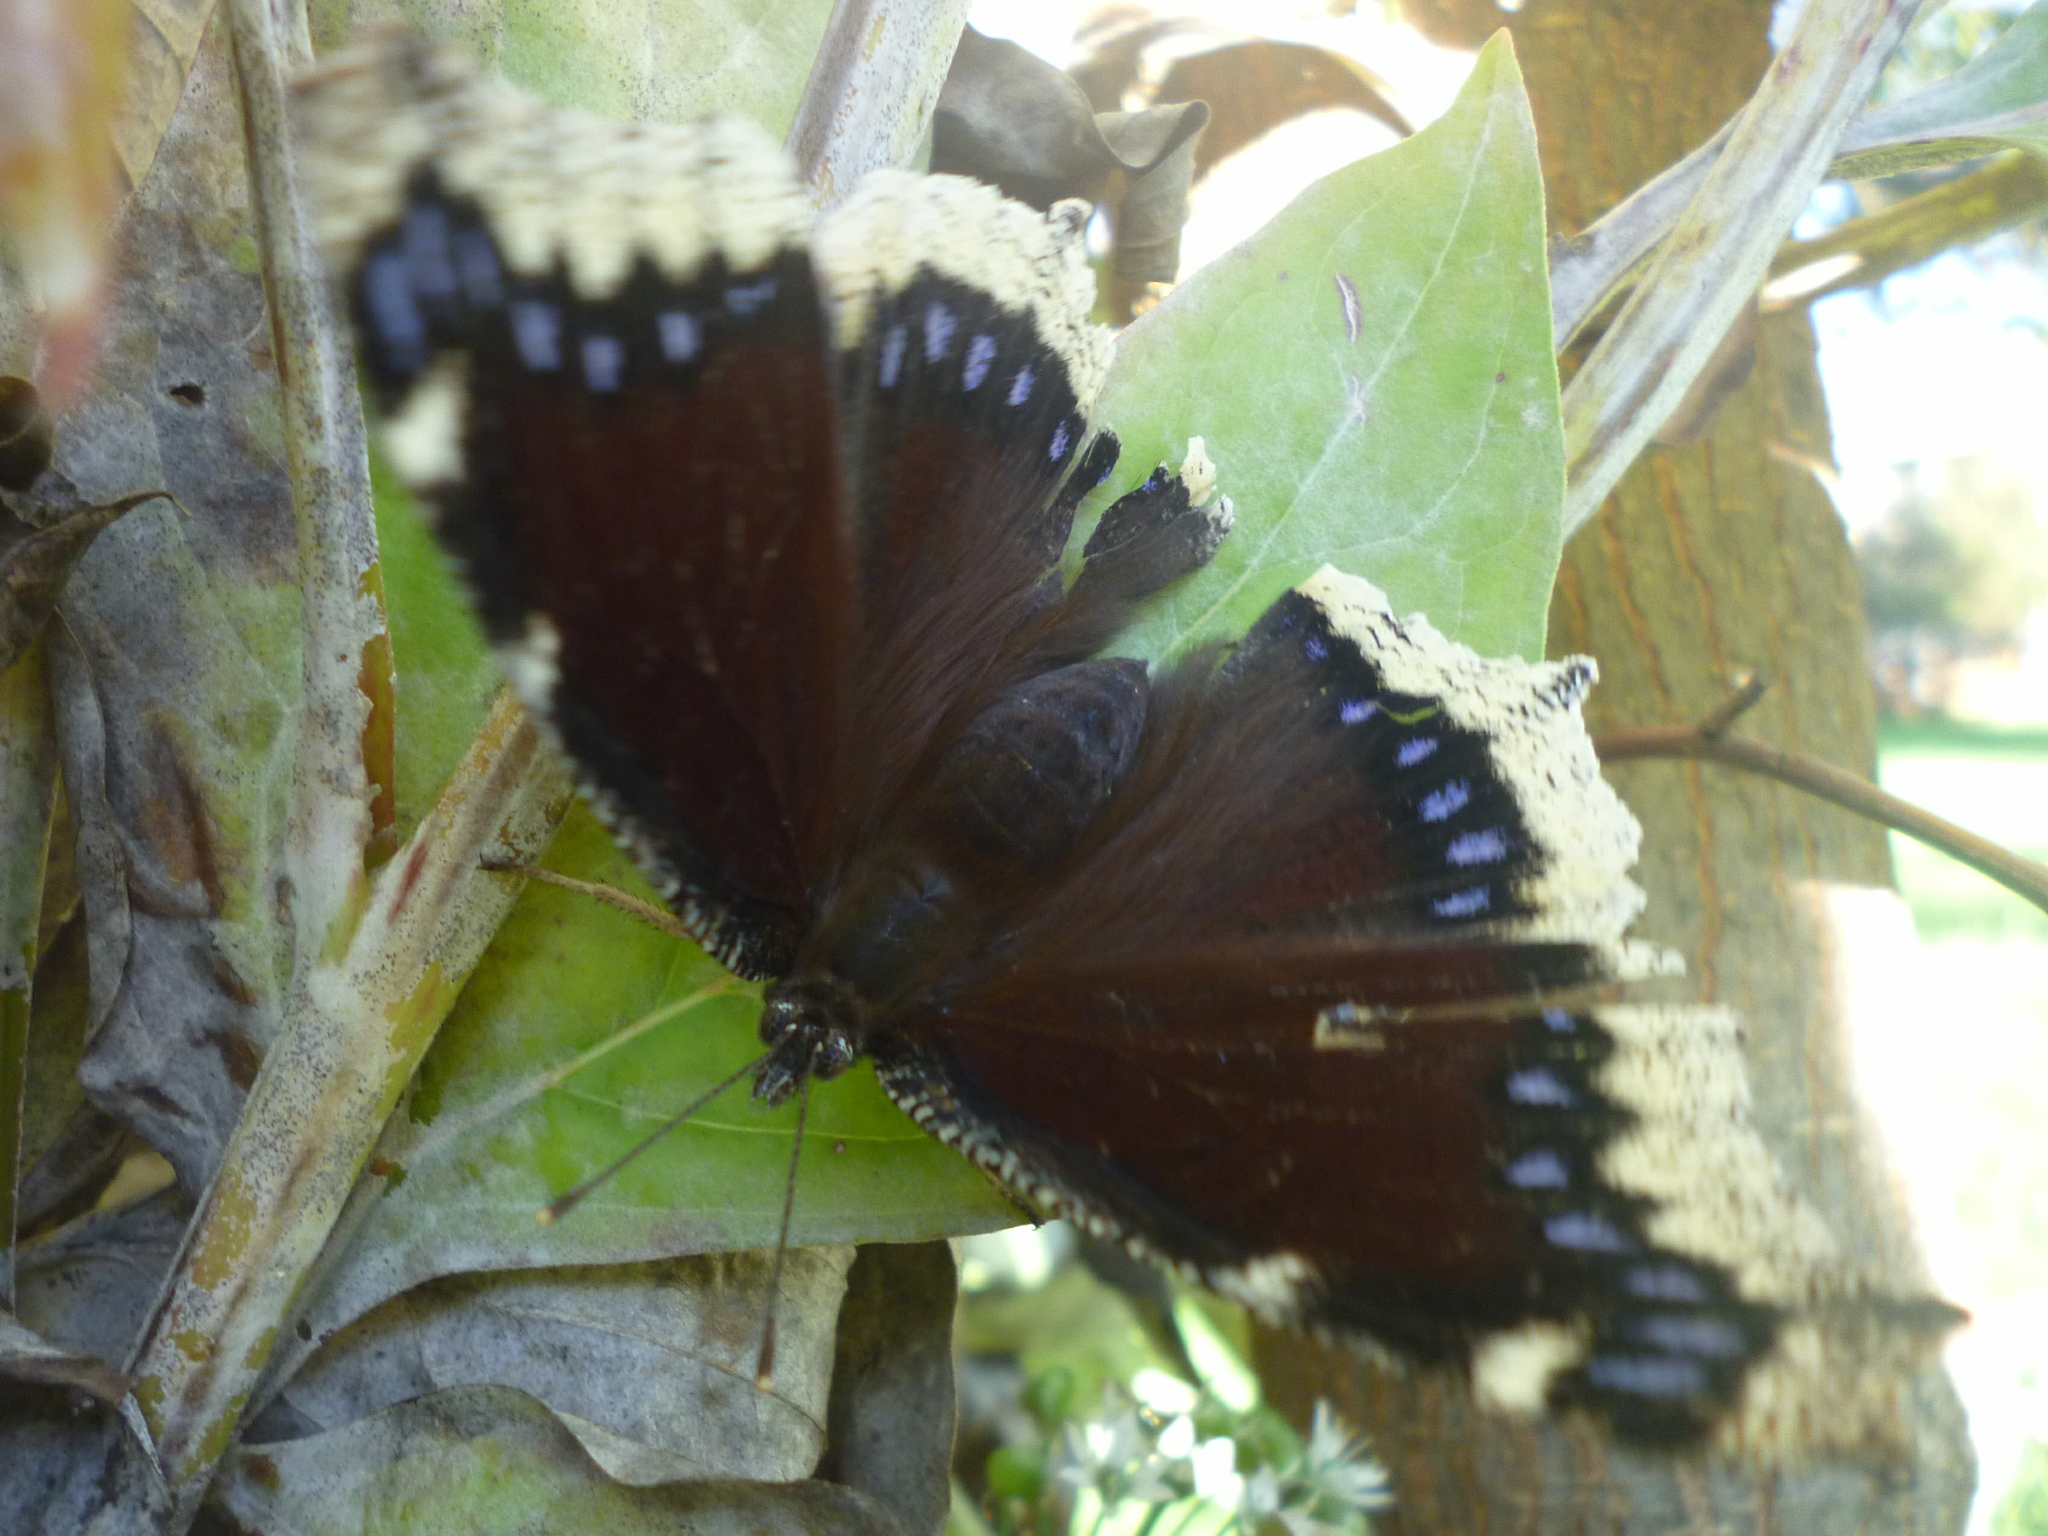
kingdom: Animalia
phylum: Arthropoda
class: Insecta
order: Lepidoptera
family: Nymphalidae
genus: Nymphalis
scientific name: Nymphalis antiopa
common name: Camberwell beauty
